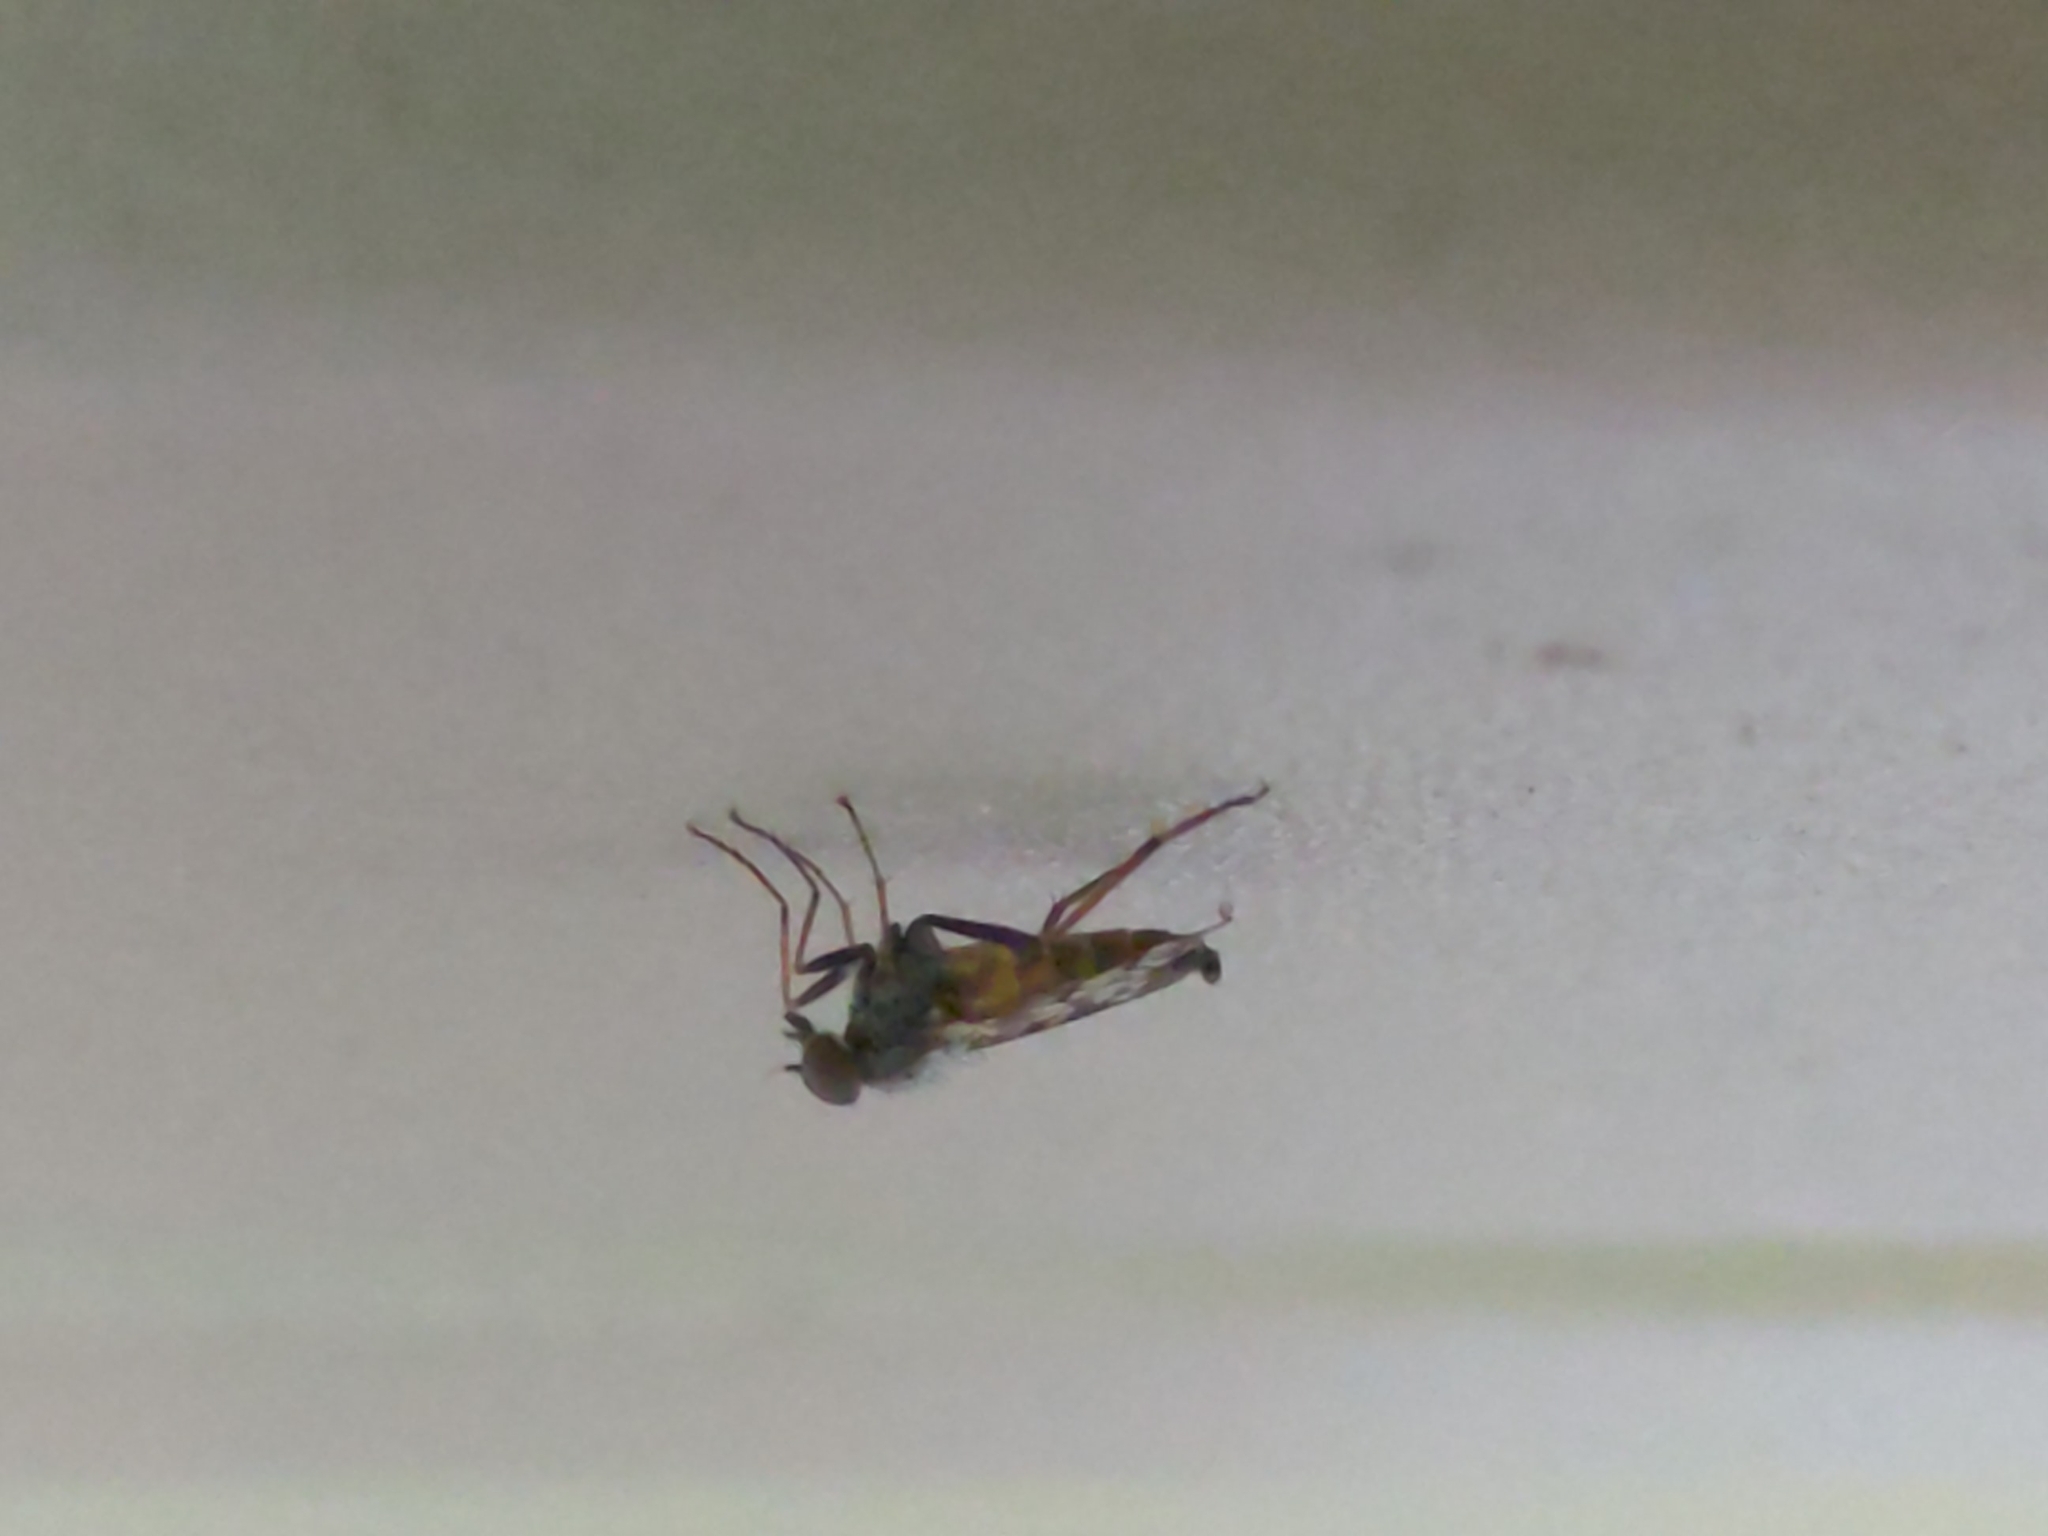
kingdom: Animalia
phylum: Arthropoda
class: Insecta
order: Diptera
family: Rhagionidae
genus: Rhagio
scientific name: Rhagio punctipennis
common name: Lesser variegated snipe fly
